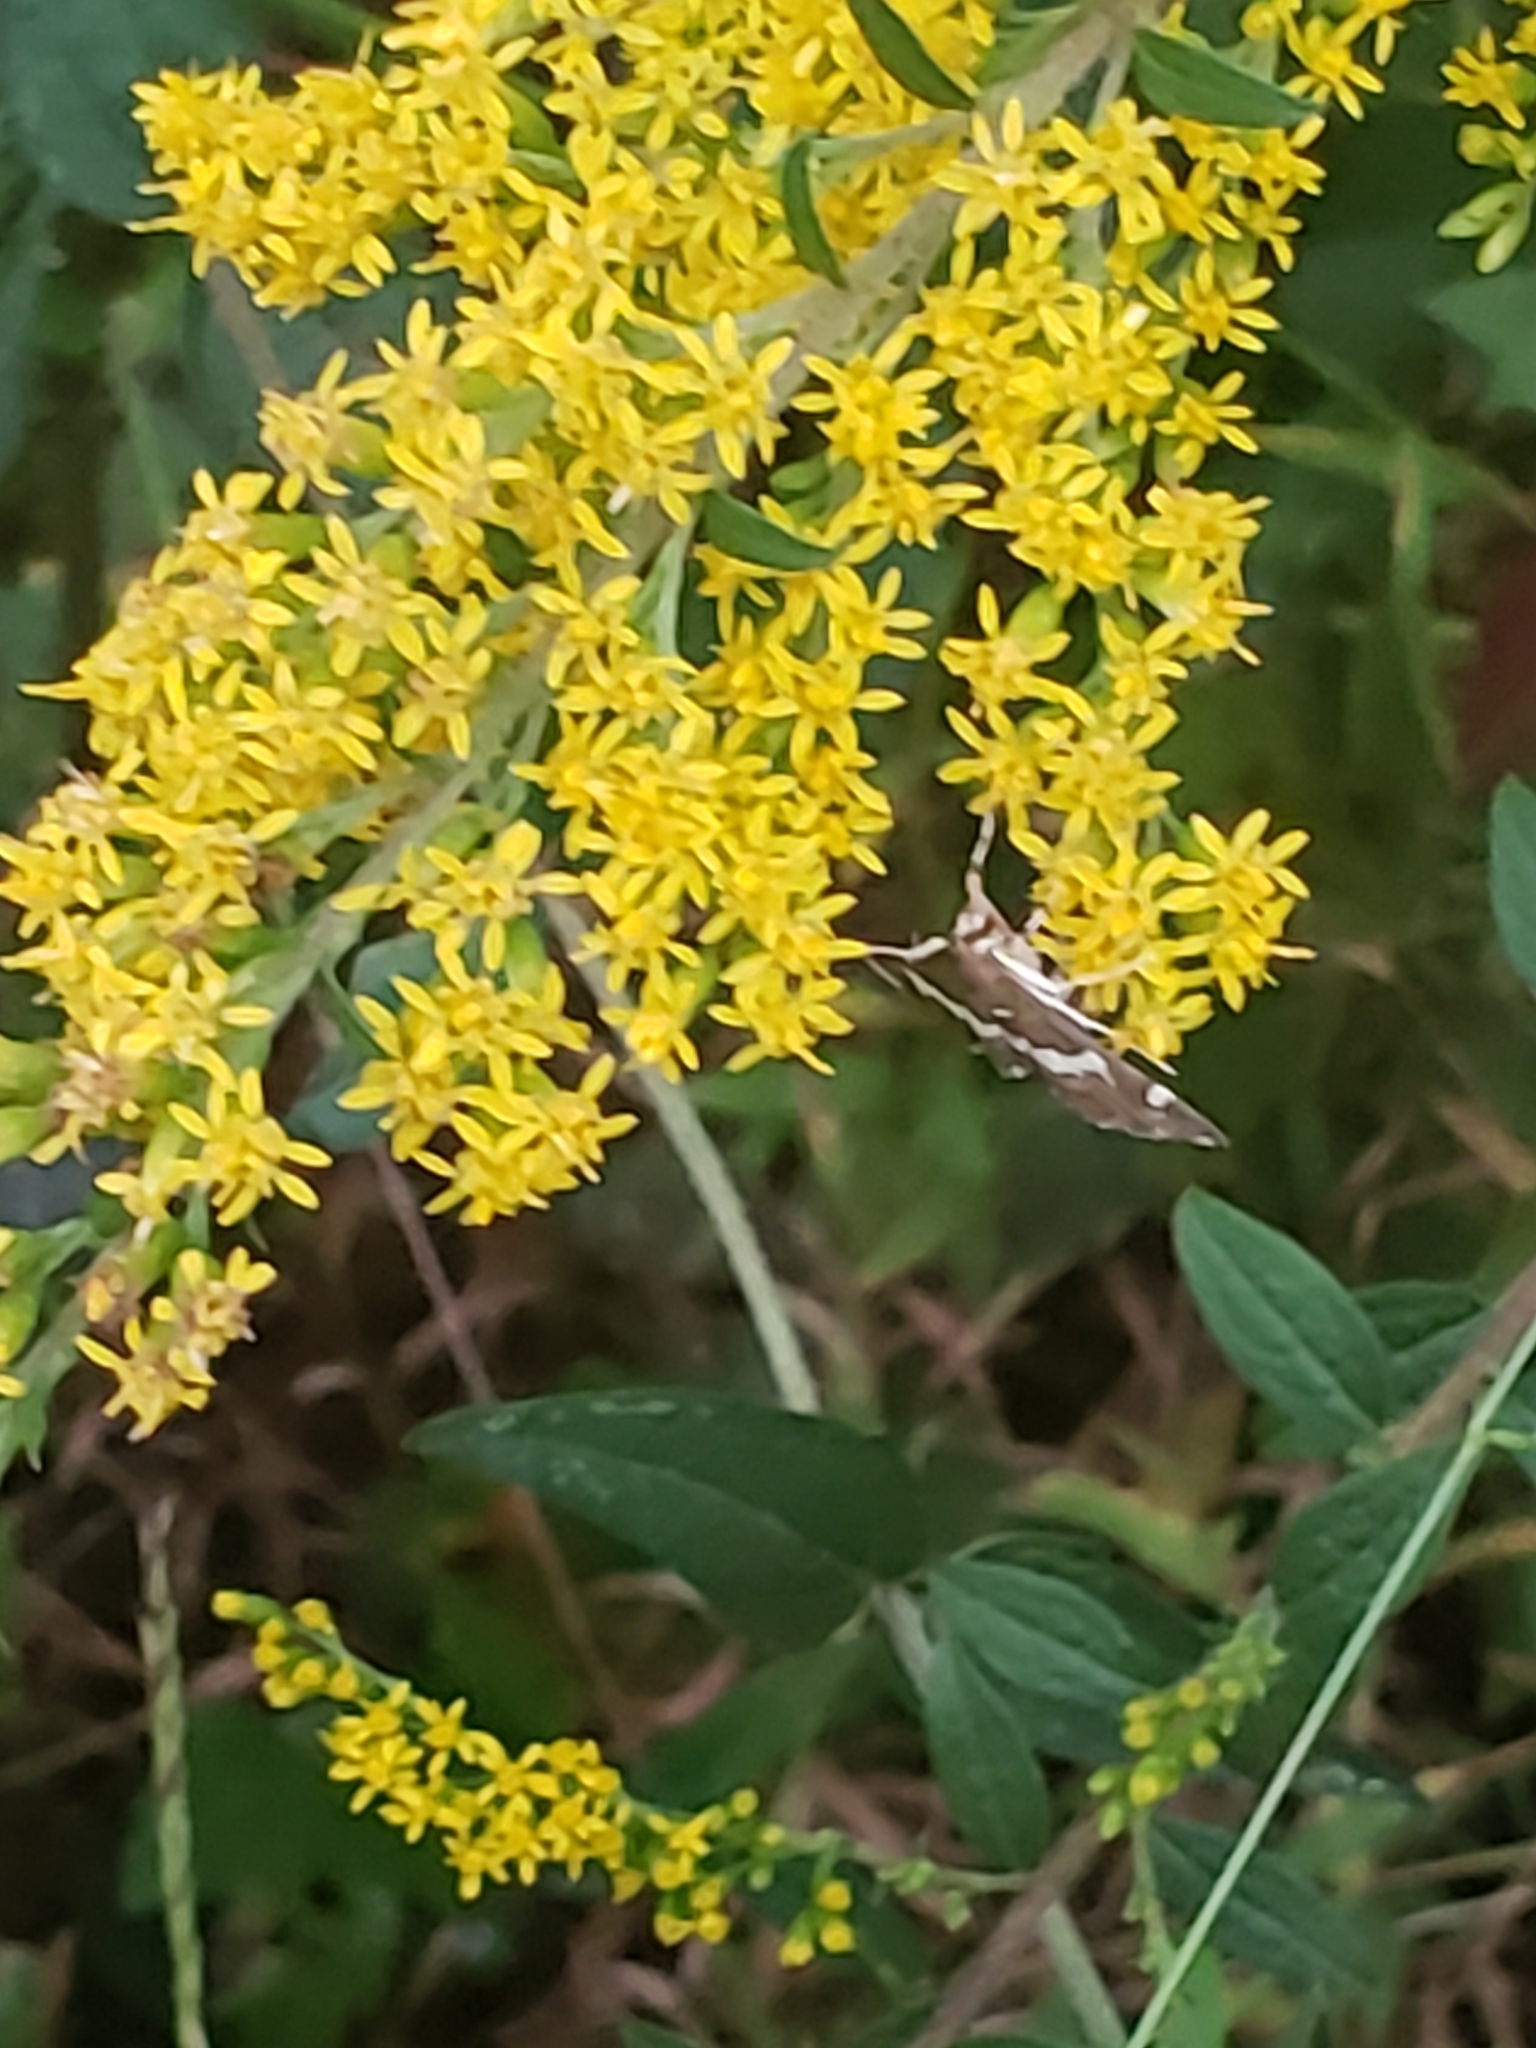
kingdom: Animalia
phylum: Arthropoda
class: Insecta
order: Lepidoptera
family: Crambidae
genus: Spoladea
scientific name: Spoladea recurvalis
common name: Beet webworm moth
